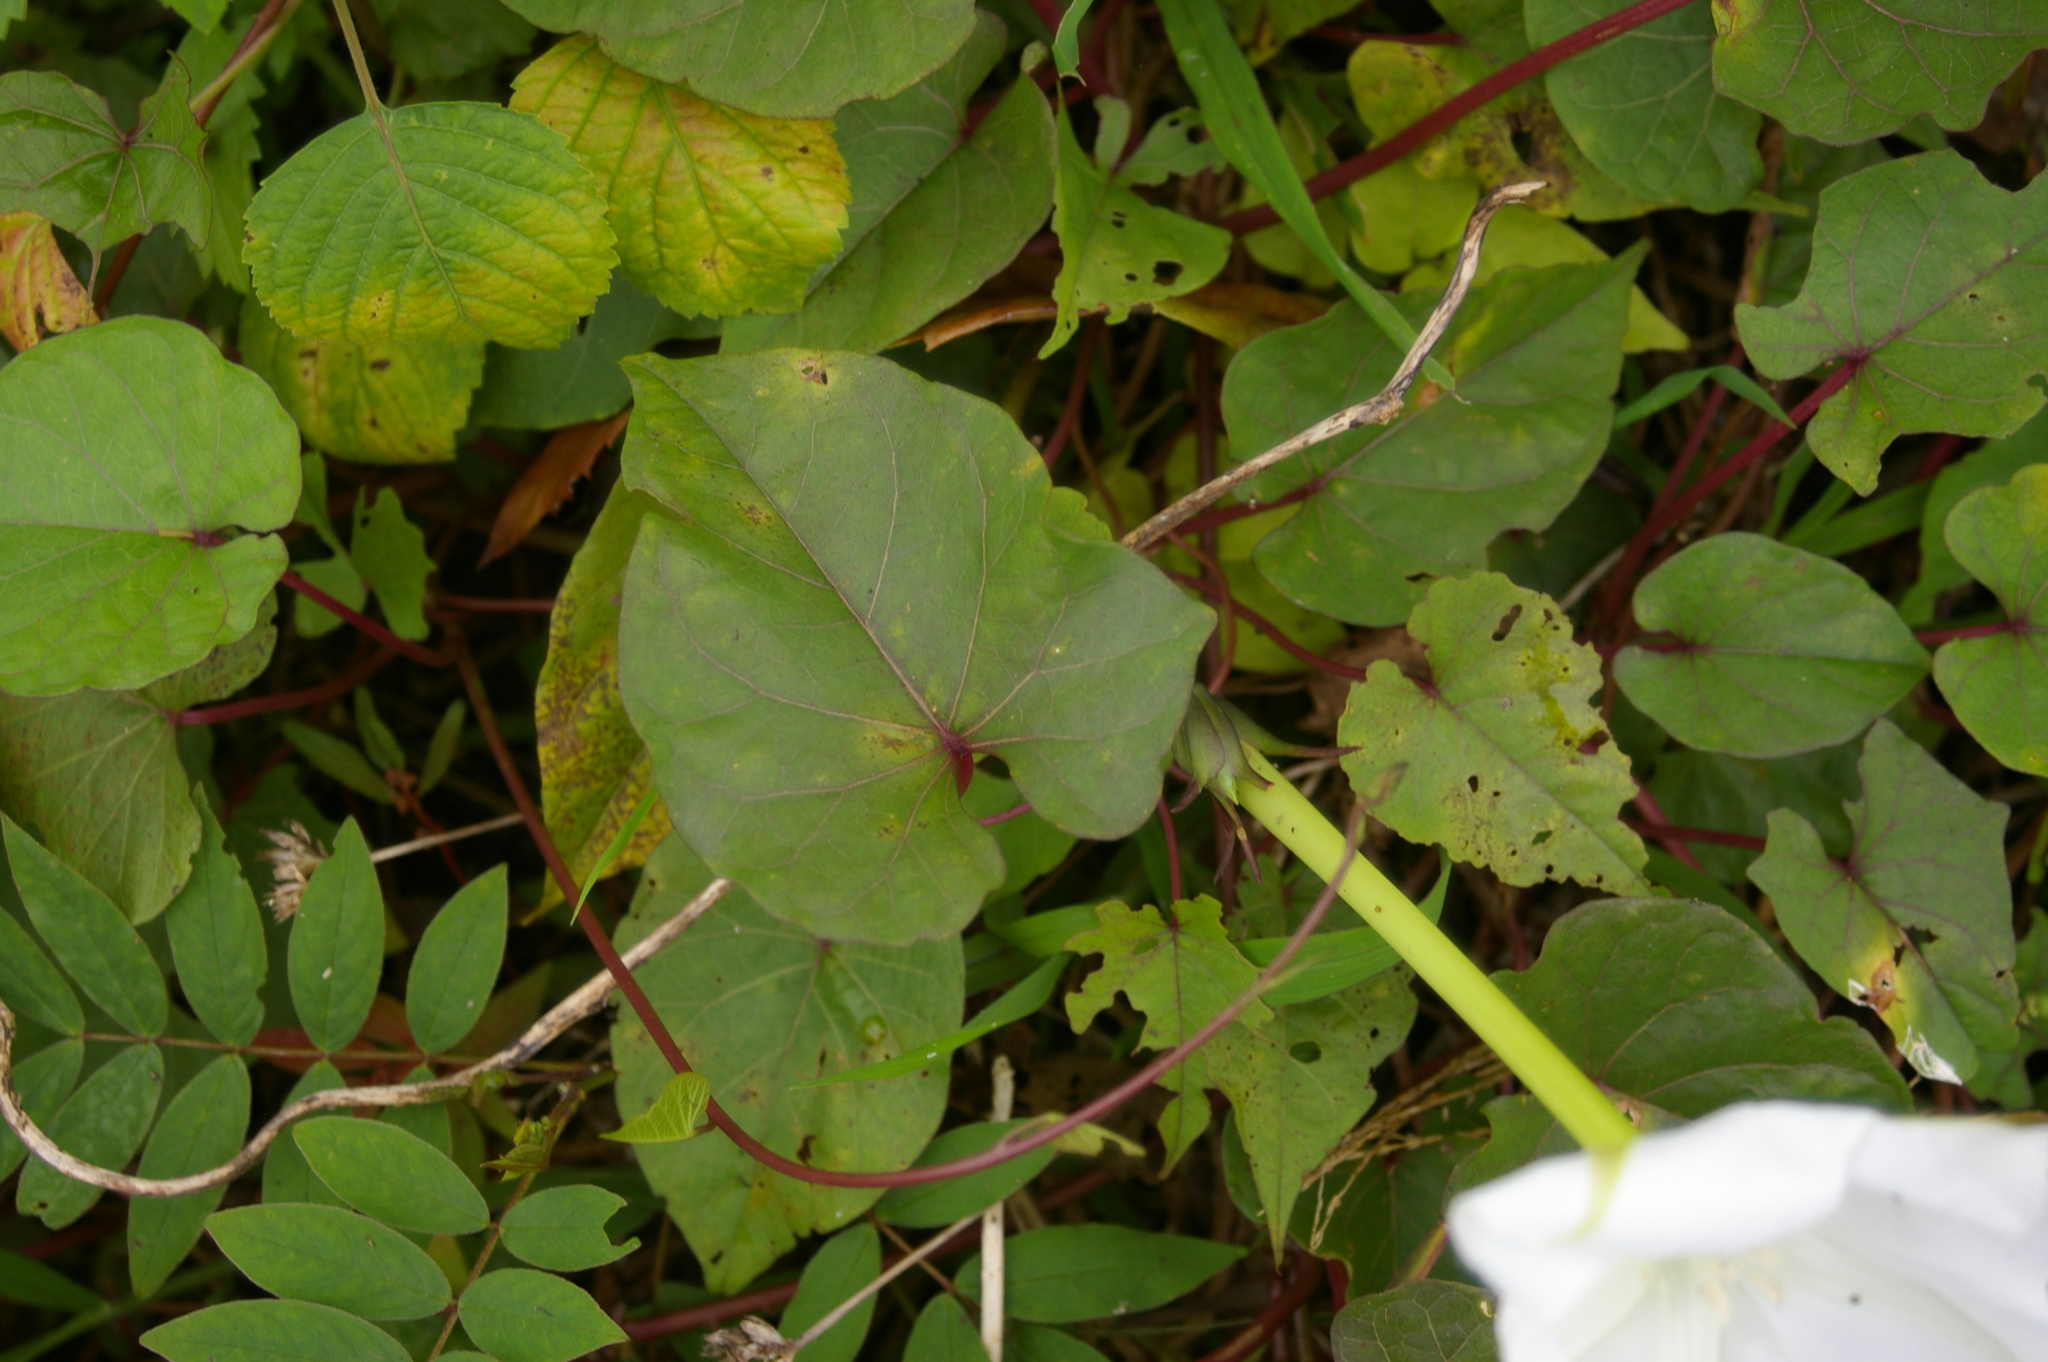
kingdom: Plantae
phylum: Tracheophyta
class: Magnoliopsida
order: Solanales
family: Convolvulaceae
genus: Ipomoea
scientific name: Ipomoea alba
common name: Moonflower
